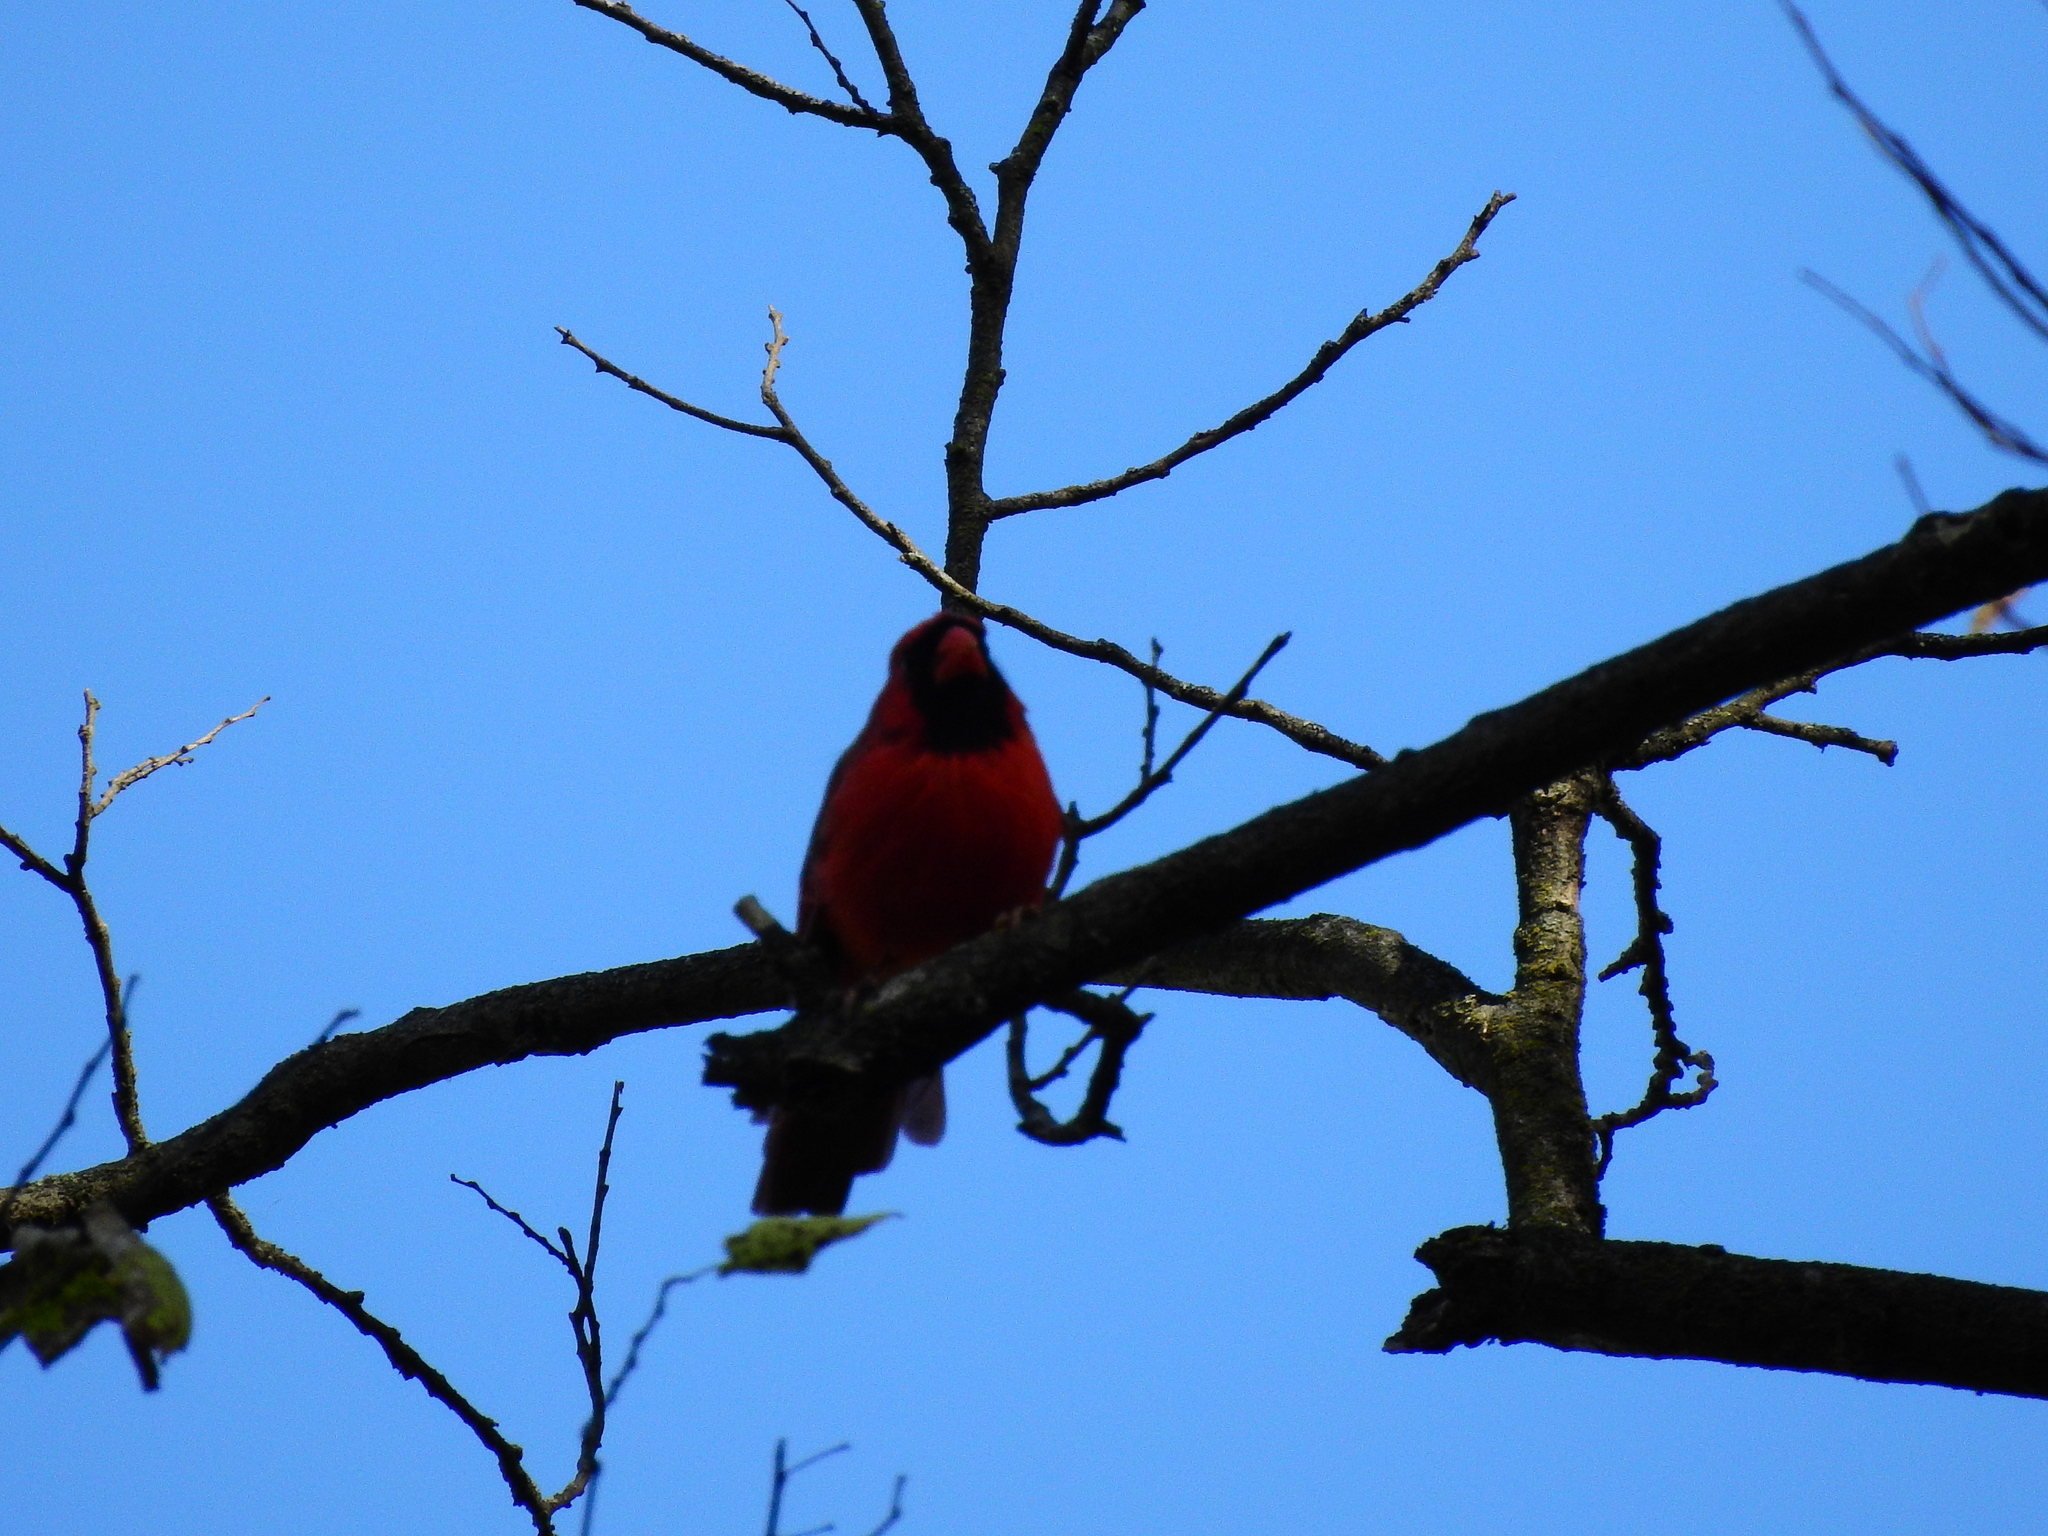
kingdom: Animalia
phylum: Chordata
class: Aves
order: Passeriformes
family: Cardinalidae
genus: Cardinalis
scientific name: Cardinalis cardinalis
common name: Northern cardinal
